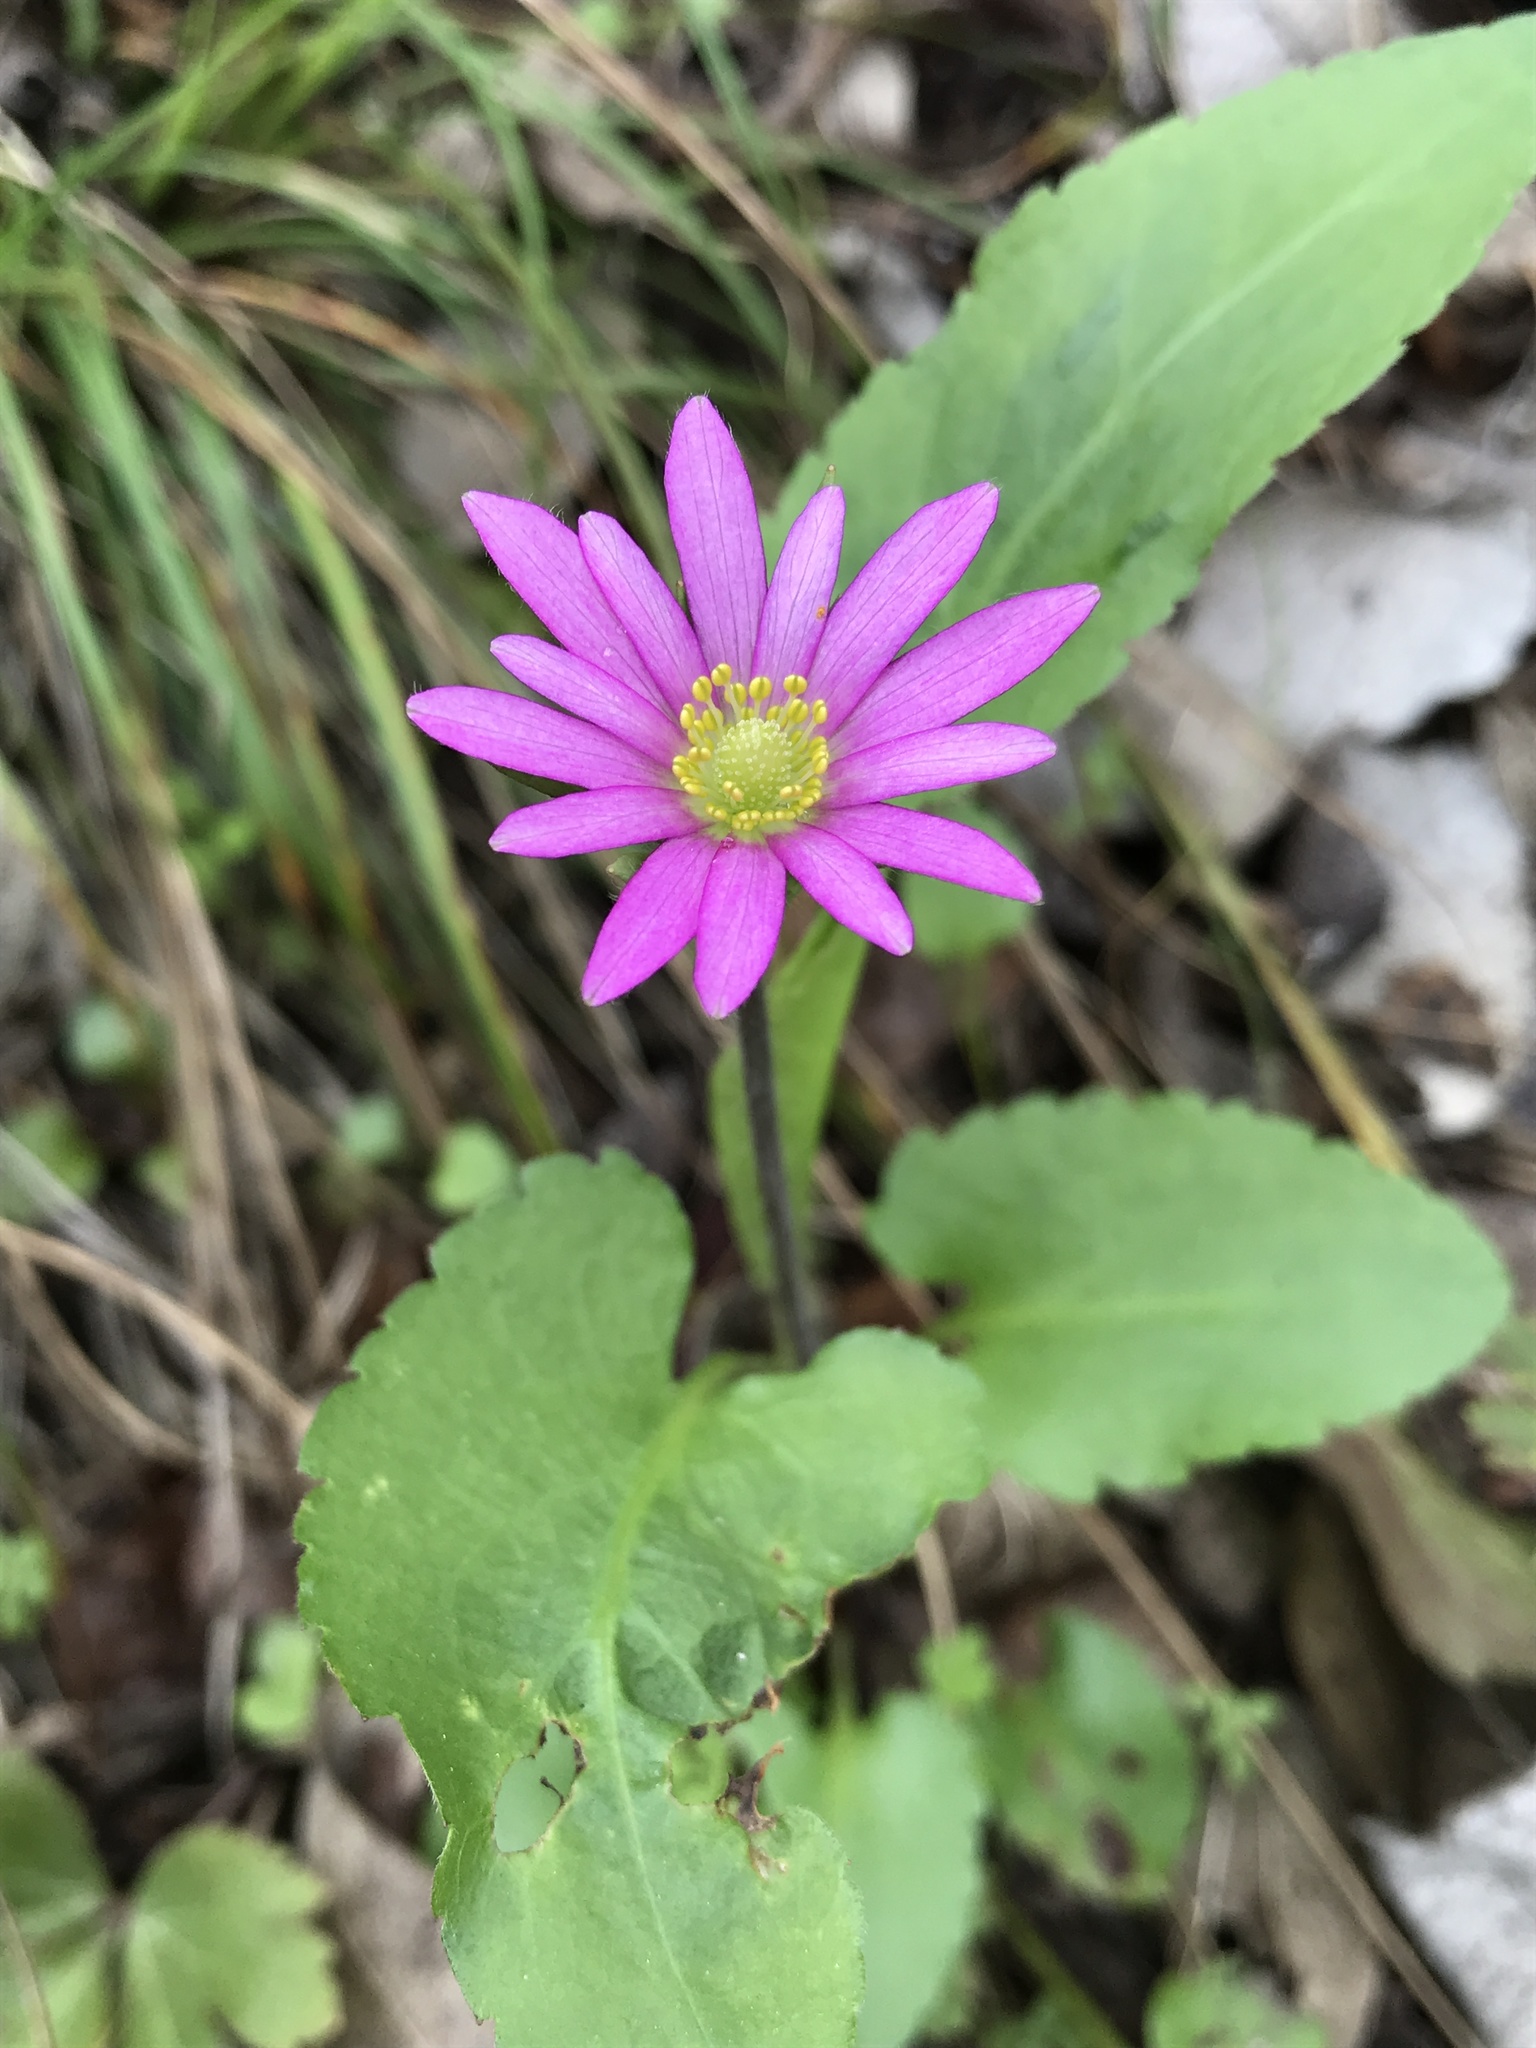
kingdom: Plantae
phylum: Tracheophyta
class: Magnoliopsida
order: Ranunculales
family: Ranunculaceae
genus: Anemone
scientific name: Anemone berlandieri
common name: Ten-petal anemone
